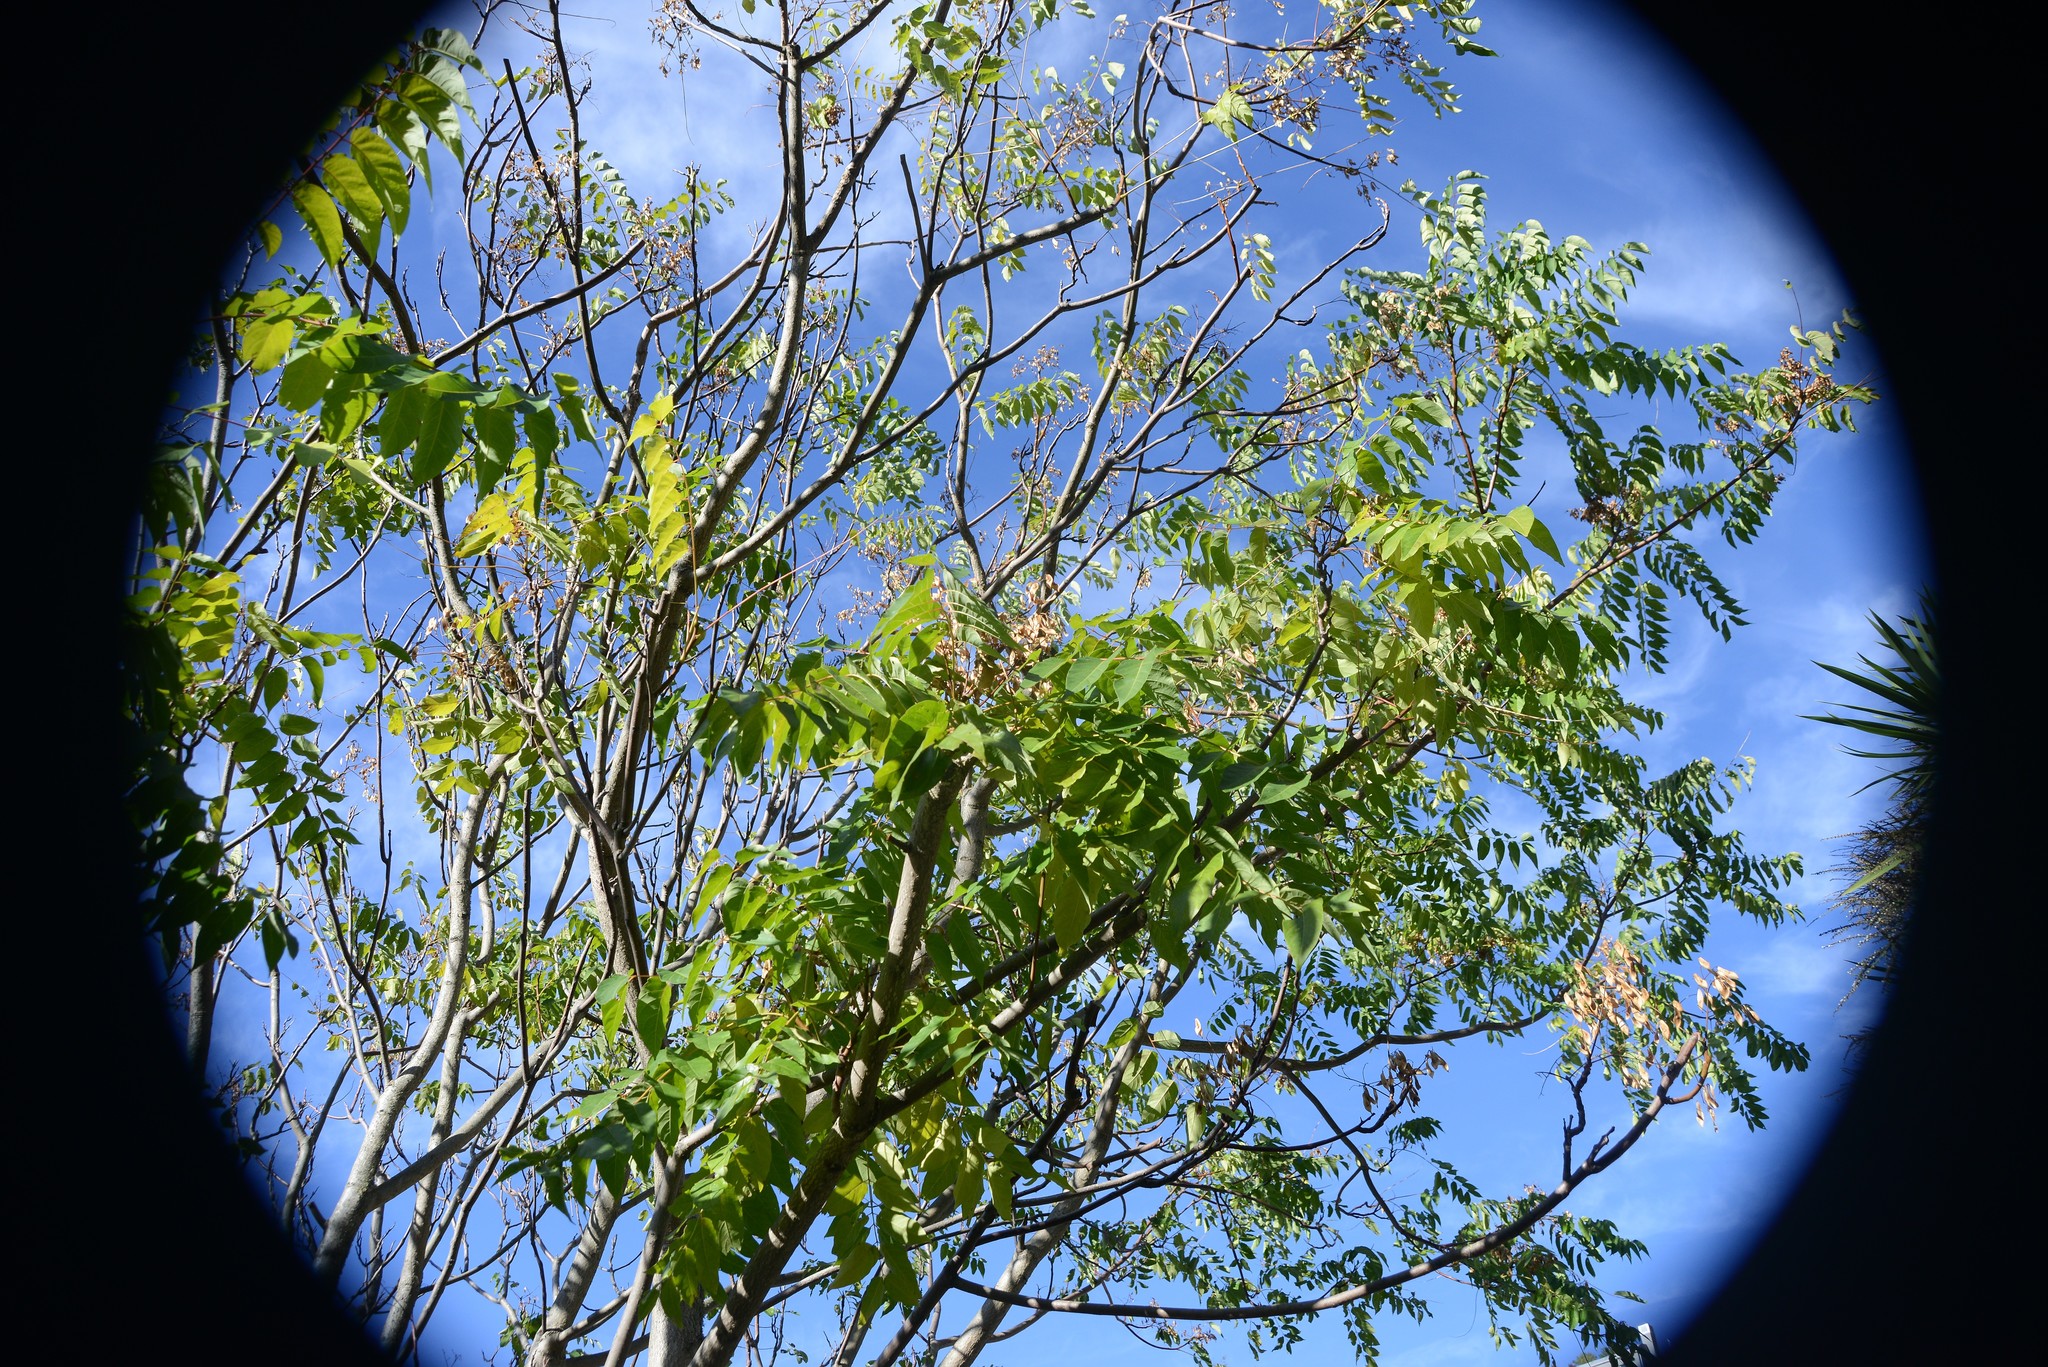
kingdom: Plantae
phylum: Tracheophyta
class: Magnoliopsida
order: Sapindales
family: Simaroubaceae
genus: Ailanthus
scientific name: Ailanthus altissima
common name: Tree-of-heaven
